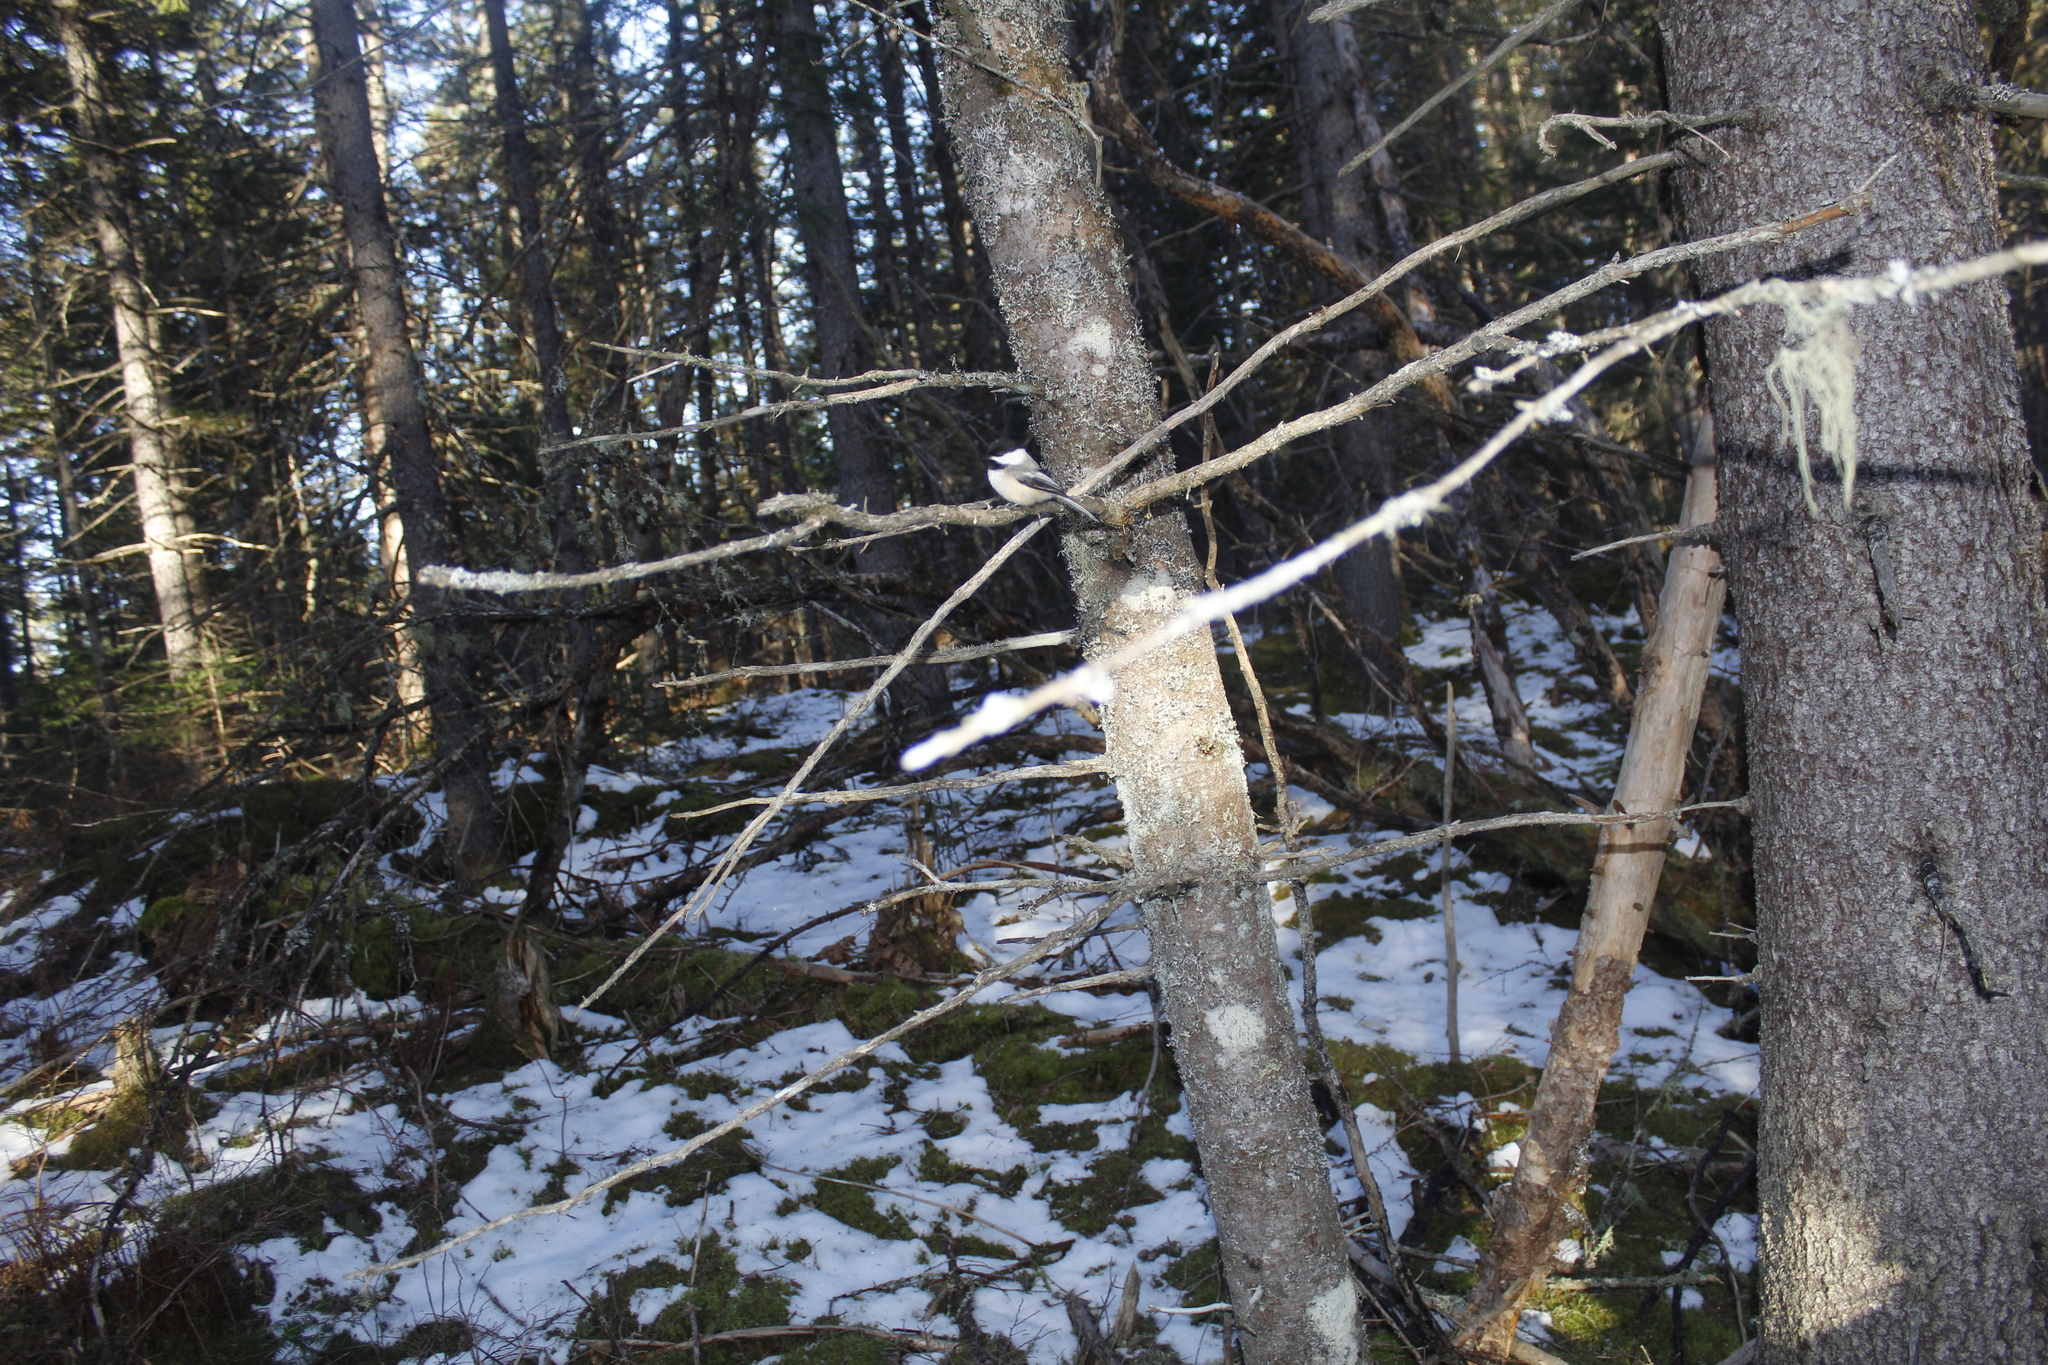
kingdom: Animalia
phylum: Chordata
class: Aves
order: Passeriformes
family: Paridae
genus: Poecile
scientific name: Poecile atricapillus
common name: Black-capped chickadee
